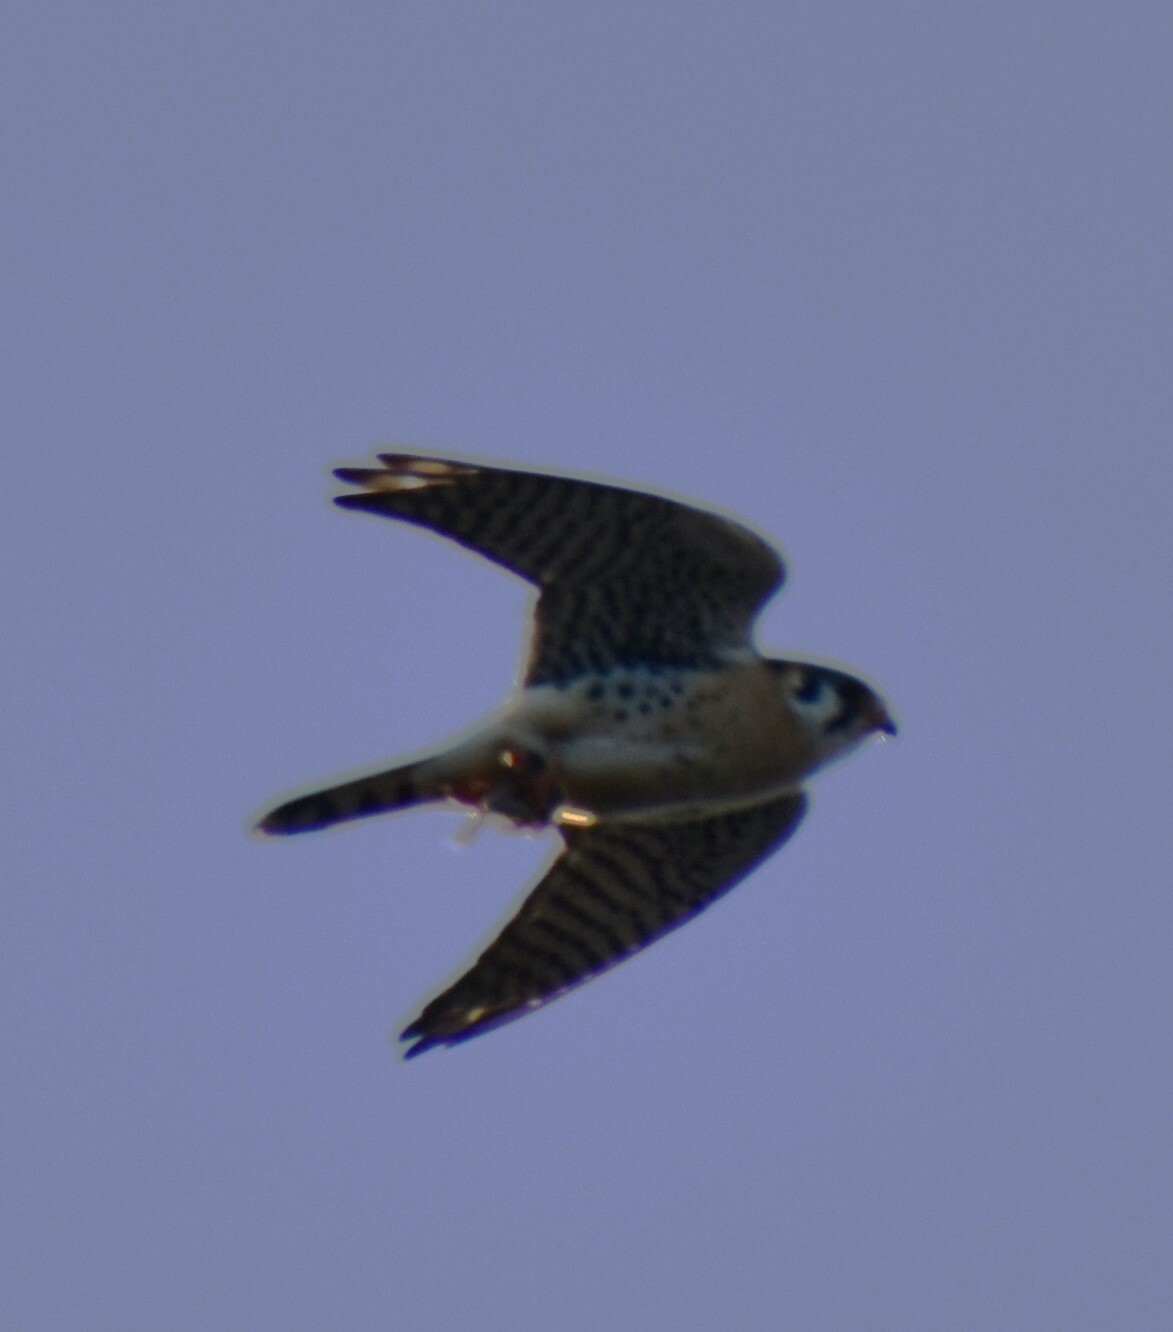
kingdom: Animalia
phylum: Chordata
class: Aves
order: Falconiformes
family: Falconidae
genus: Falco
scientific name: Falco sparverius
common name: American kestrel
